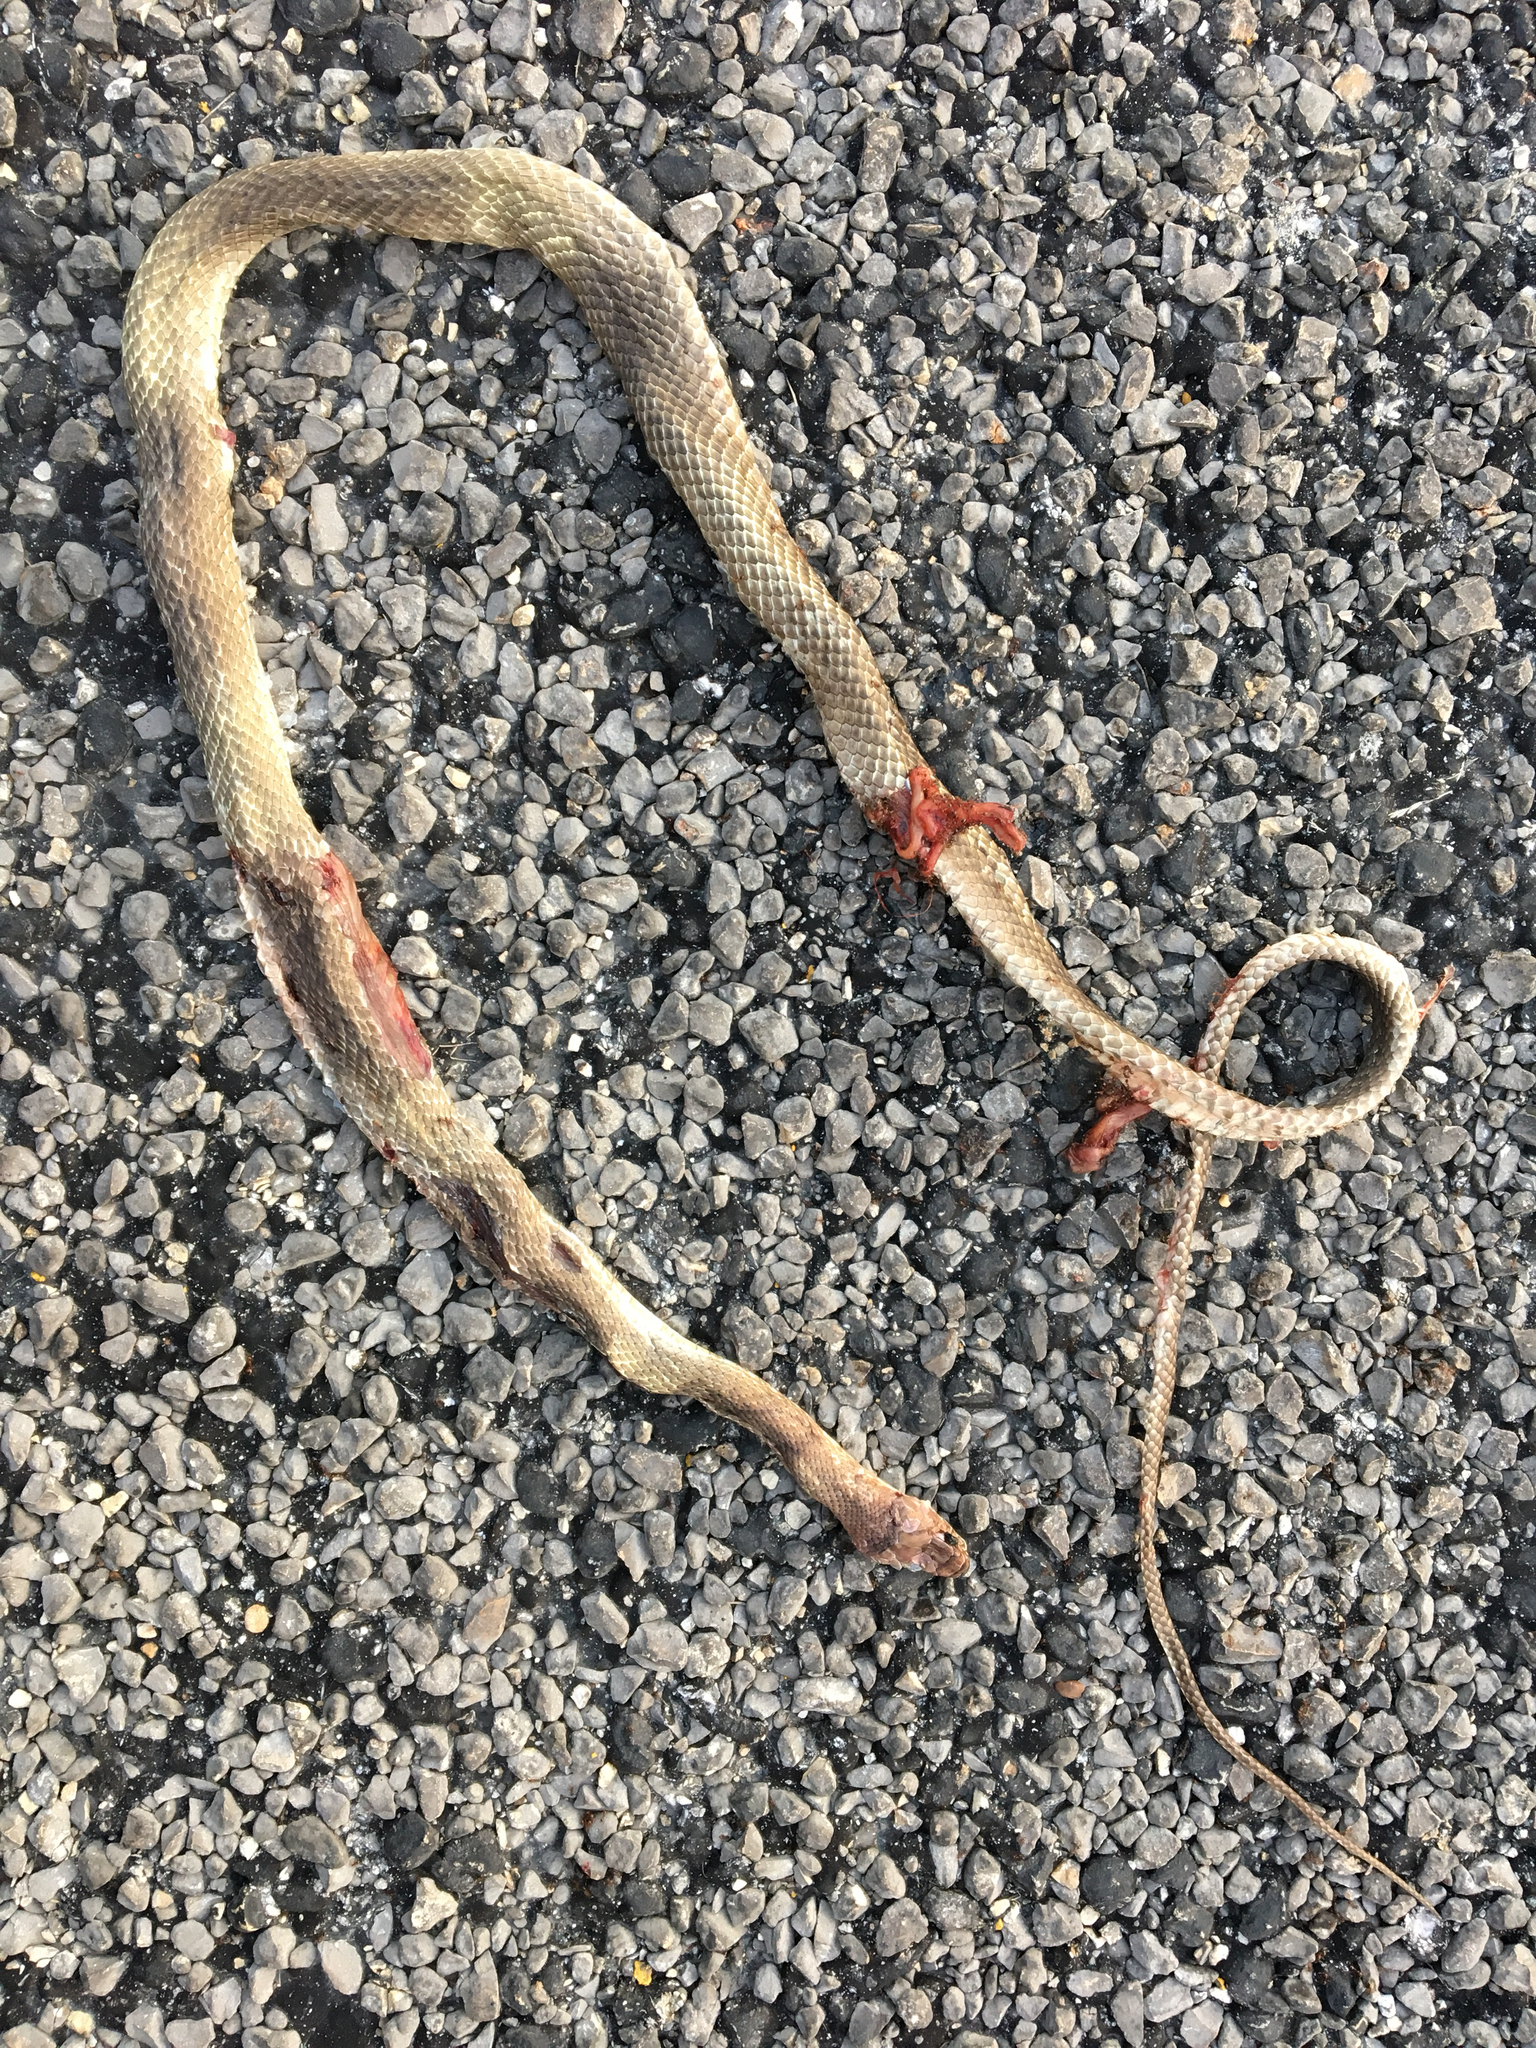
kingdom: Animalia
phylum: Chordata
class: Squamata
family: Colubridae
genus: Masticophis
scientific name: Masticophis flagellum
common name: Coachwhip
